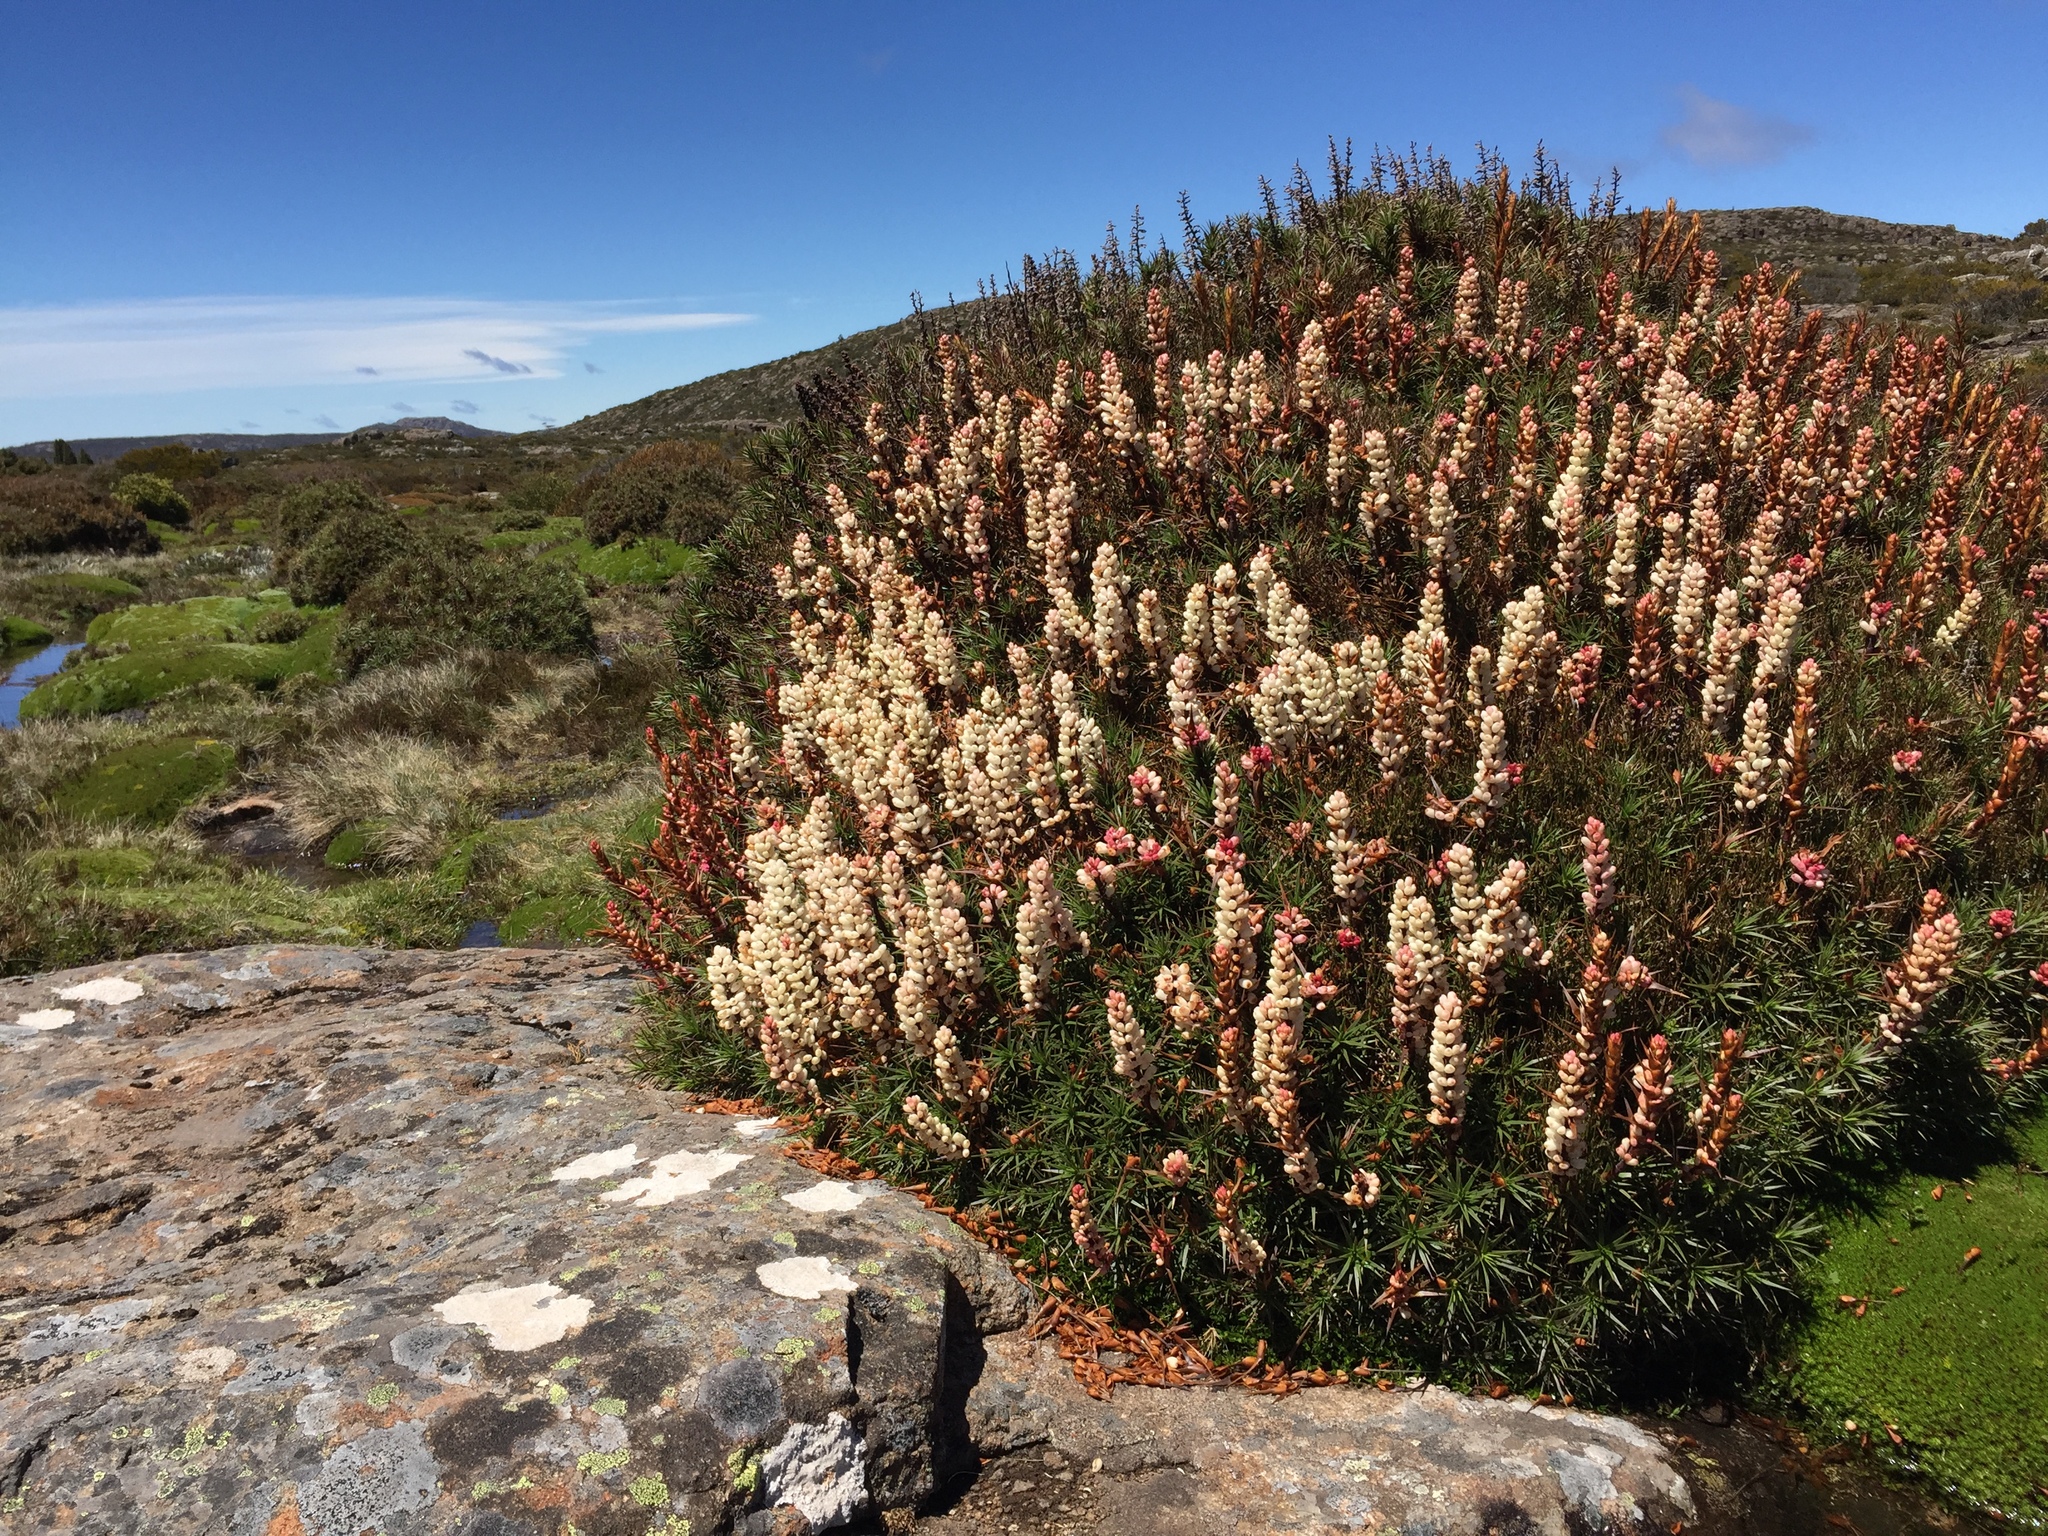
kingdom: Plantae
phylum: Tracheophyta
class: Magnoliopsida
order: Ericales
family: Ericaceae
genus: Dracophyllum
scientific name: Dracophyllum persistentifolium
